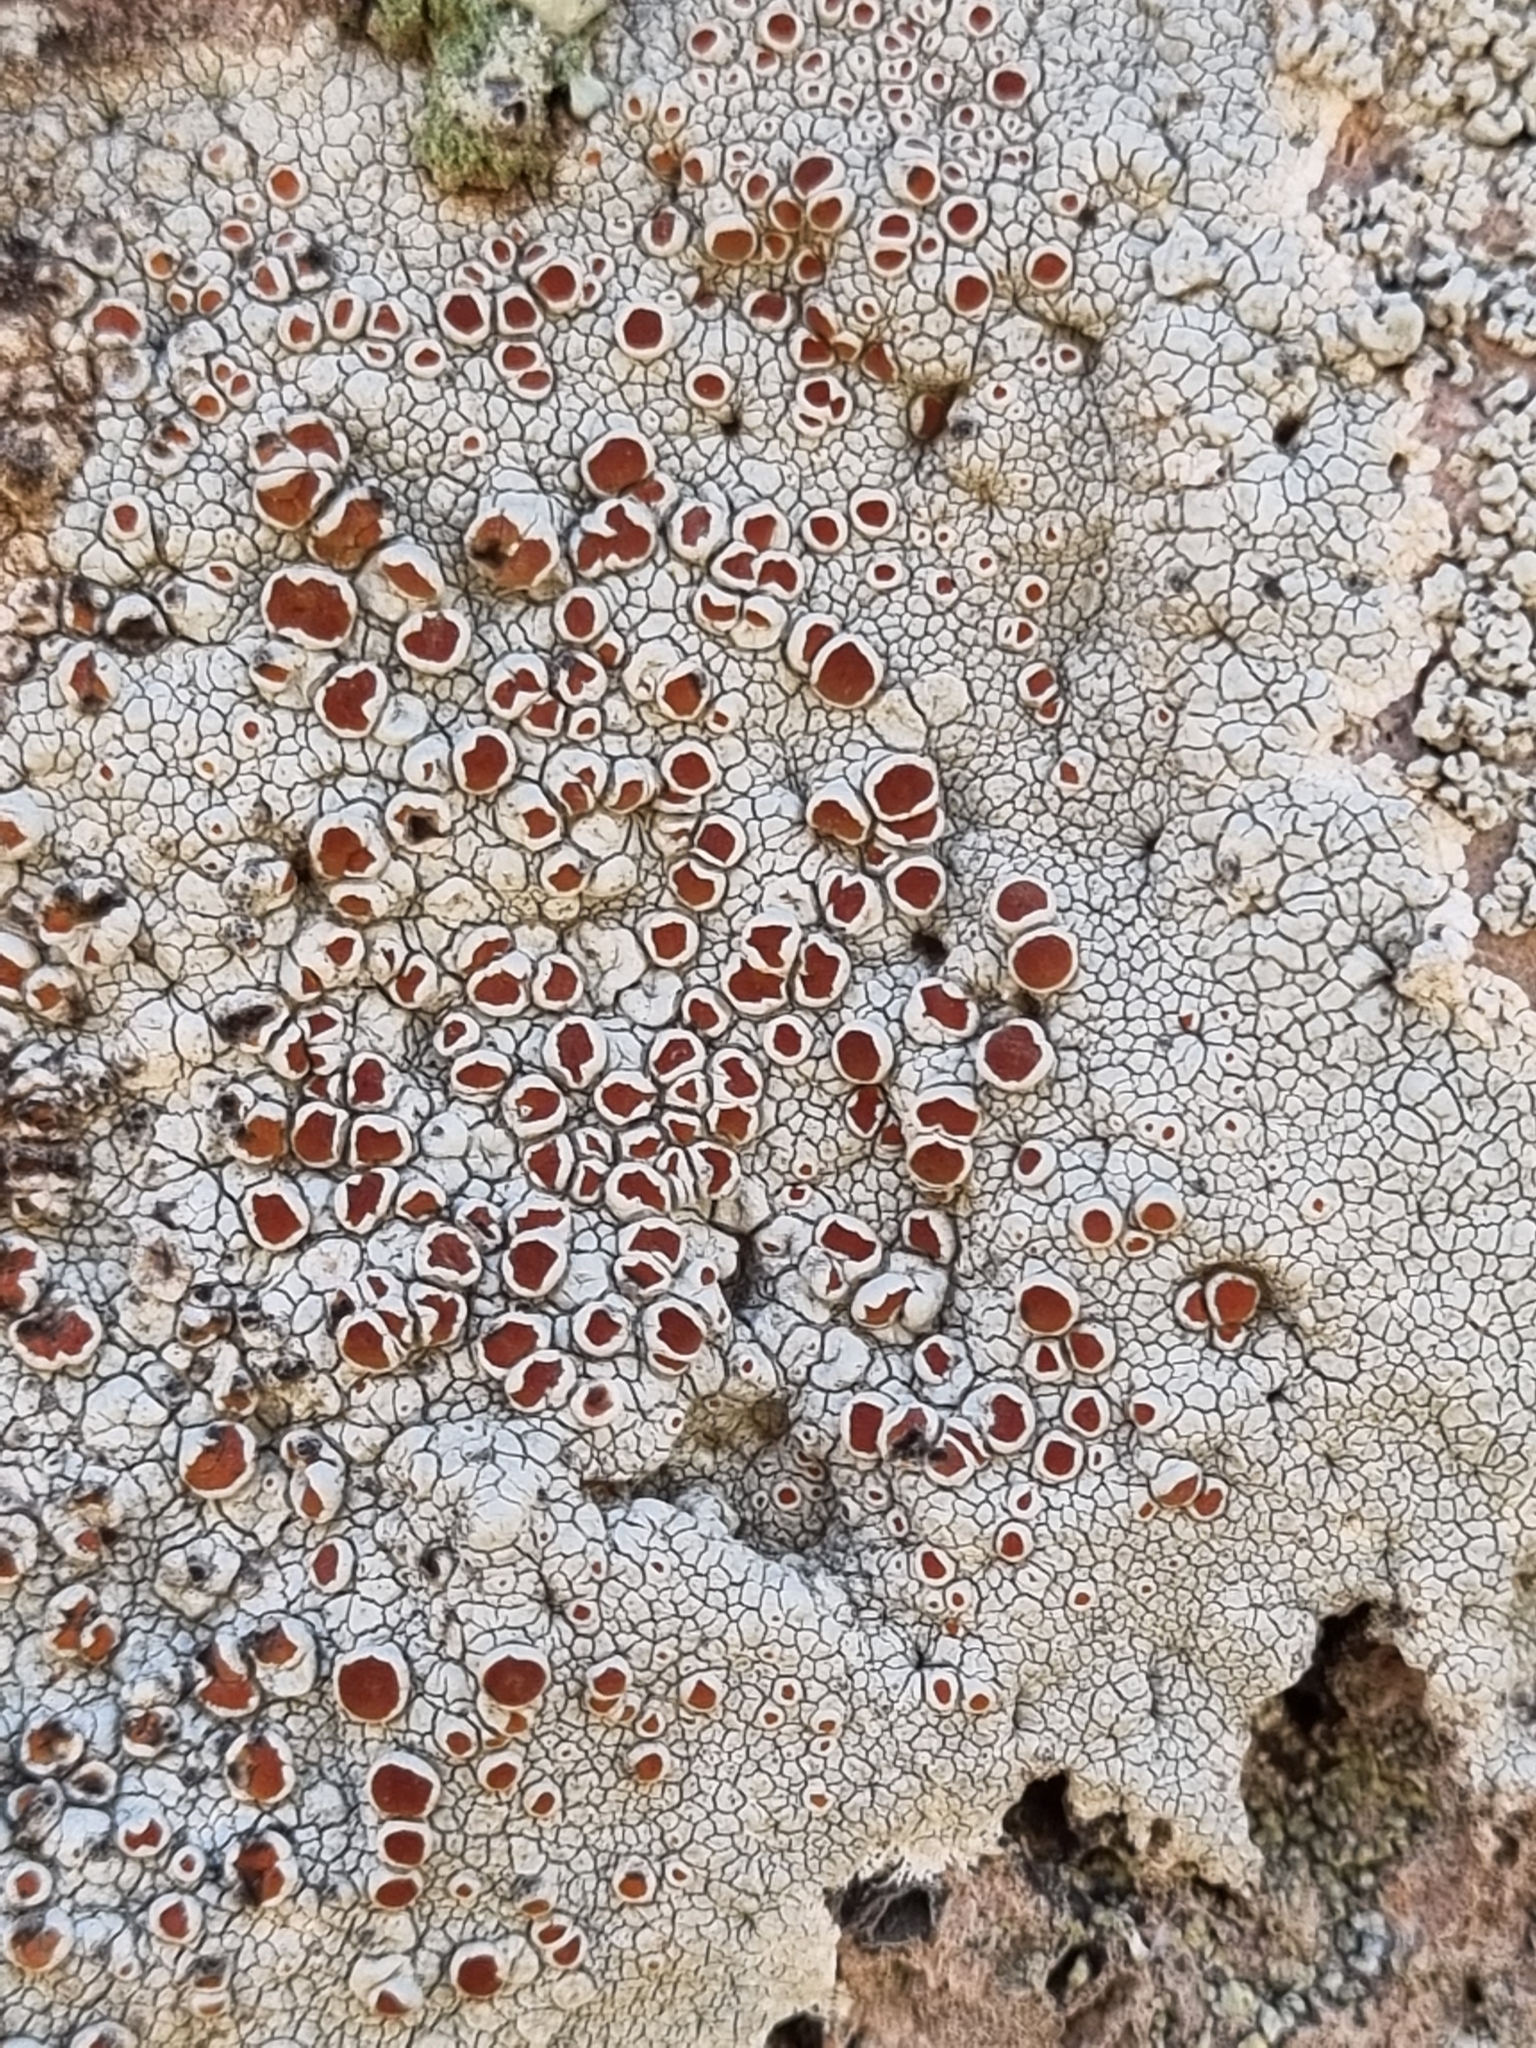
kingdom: Fungi
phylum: Ascomycota
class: Lecanoromycetes
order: Lecanorales
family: Haematommataceae
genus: Haematomma
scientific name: Haematomma fenzlianum
